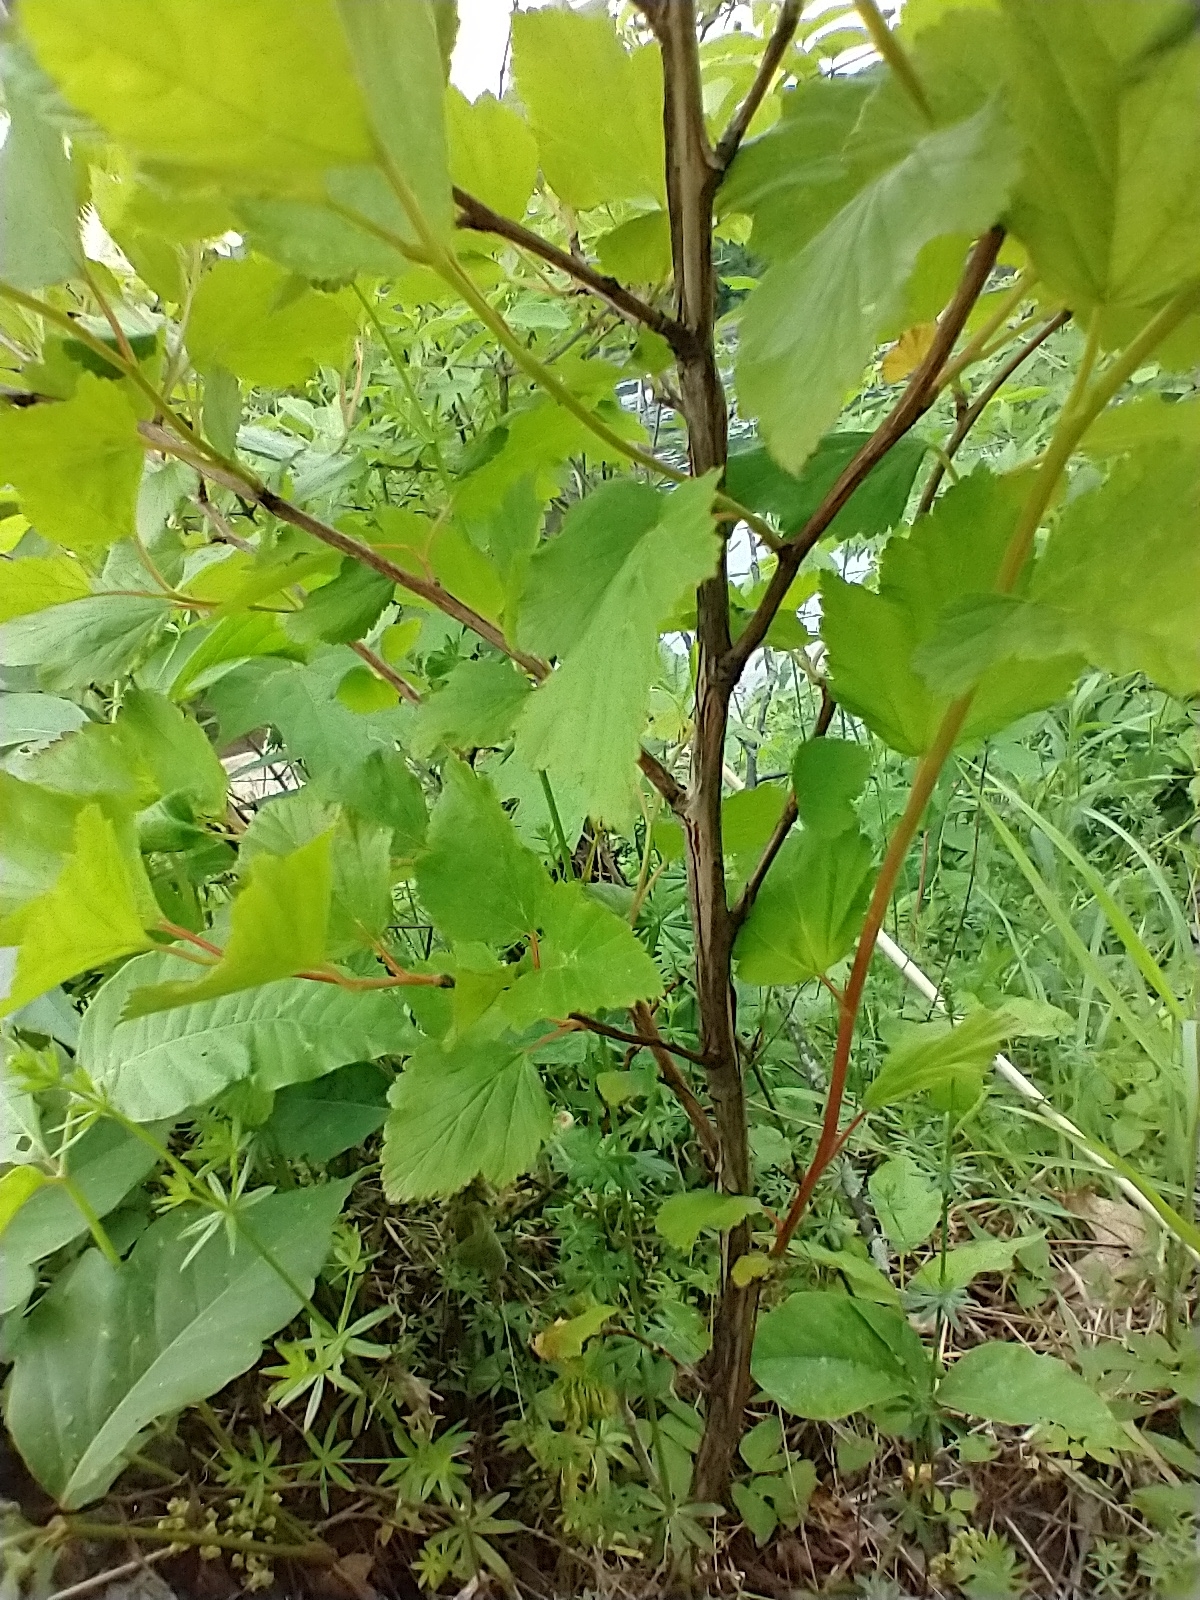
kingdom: Plantae
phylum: Tracheophyta
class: Magnoliopsida
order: Rosales
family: Rosaceae
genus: Physocarpus
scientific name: Physocarpus opulifolius
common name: Ninebark
